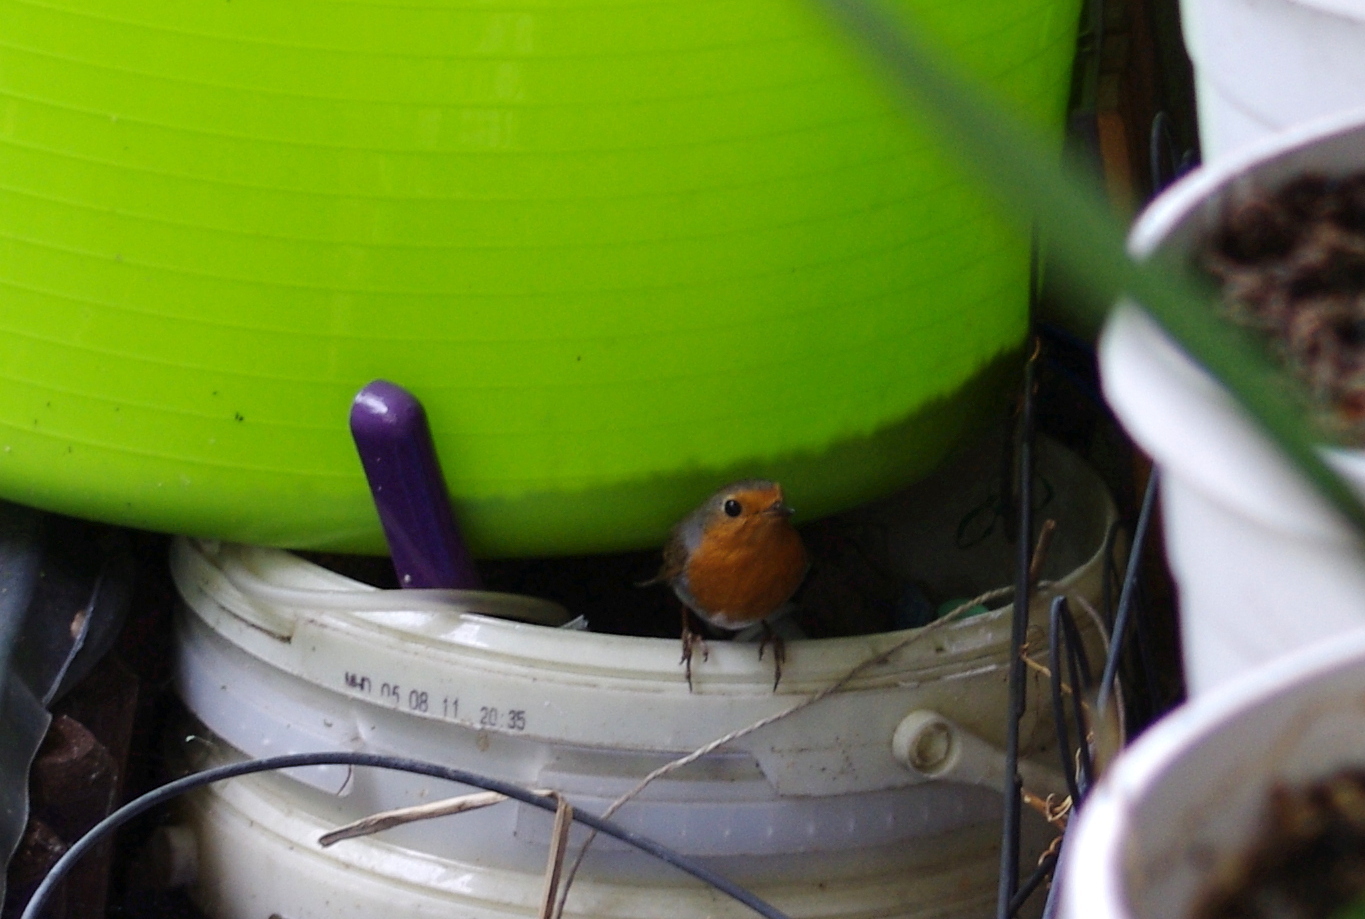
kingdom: Animalia
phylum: Chordata
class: Aves
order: Passeriformes
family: Muscicapidae
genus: Erithacus
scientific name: Erithacus rubecula
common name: European robin
